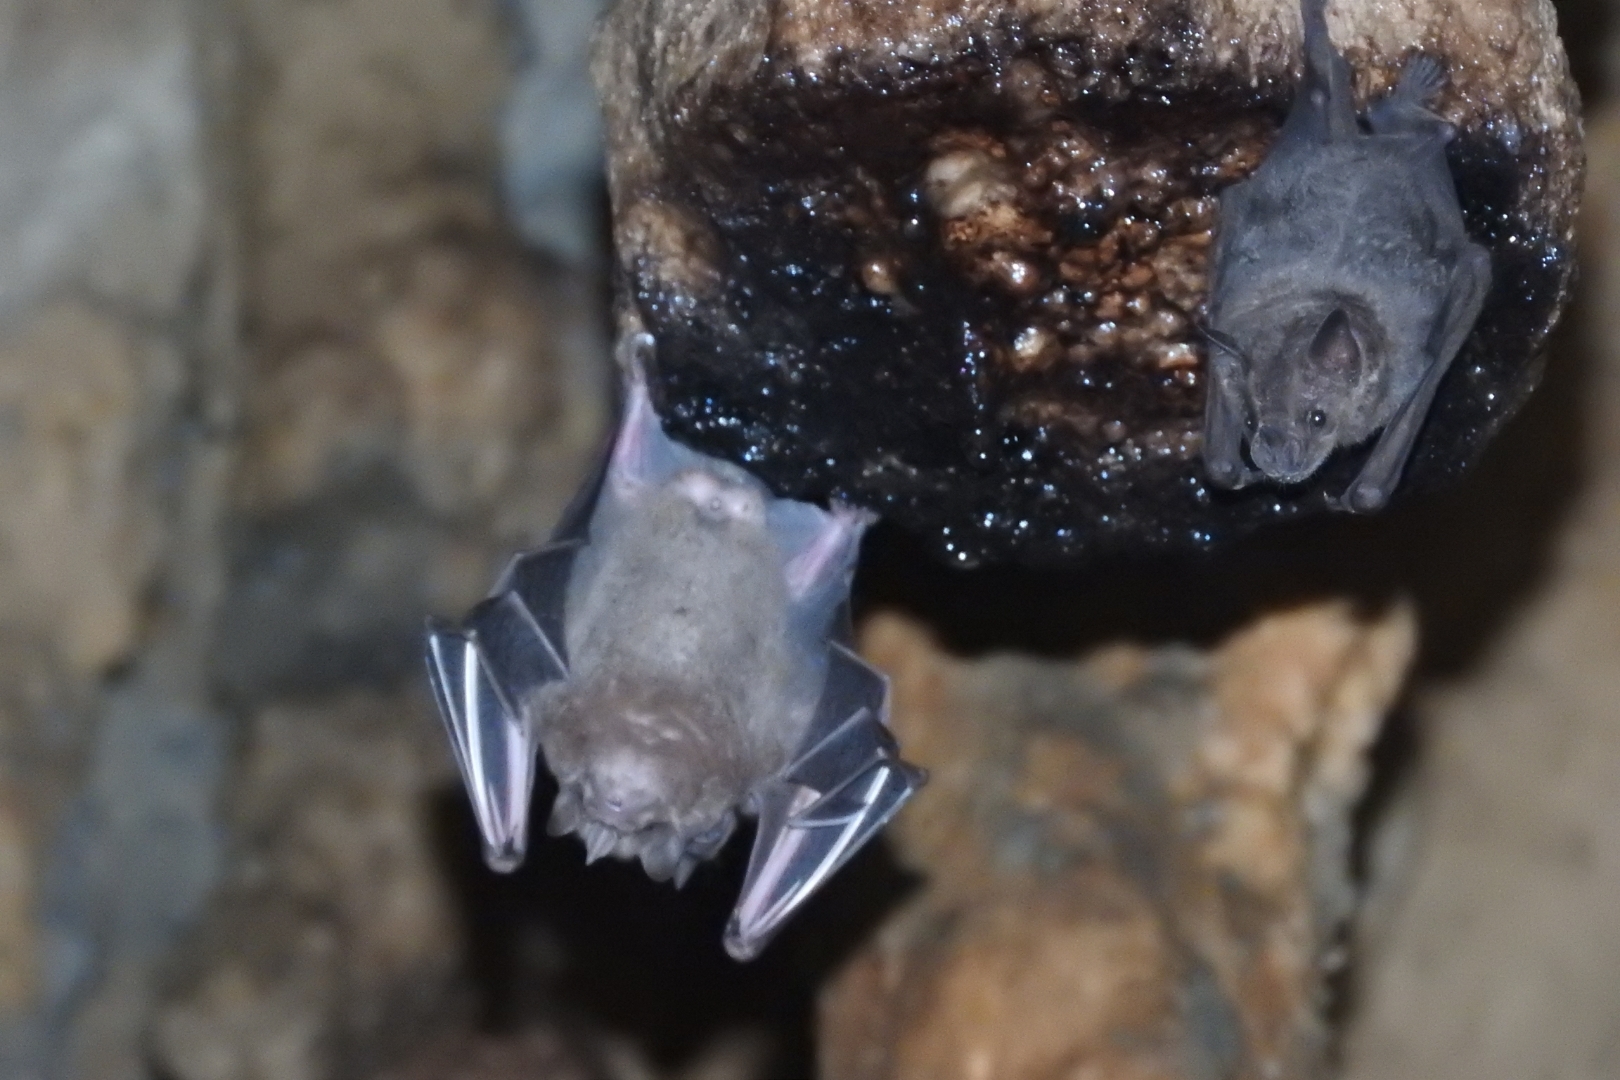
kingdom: Animalia
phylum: Chordata
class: Mammalia
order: Chiroptera
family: Phyllostomidae
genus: Artibeus
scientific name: Artibeus jamaicensis
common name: Jamaican fruit-eating bat
